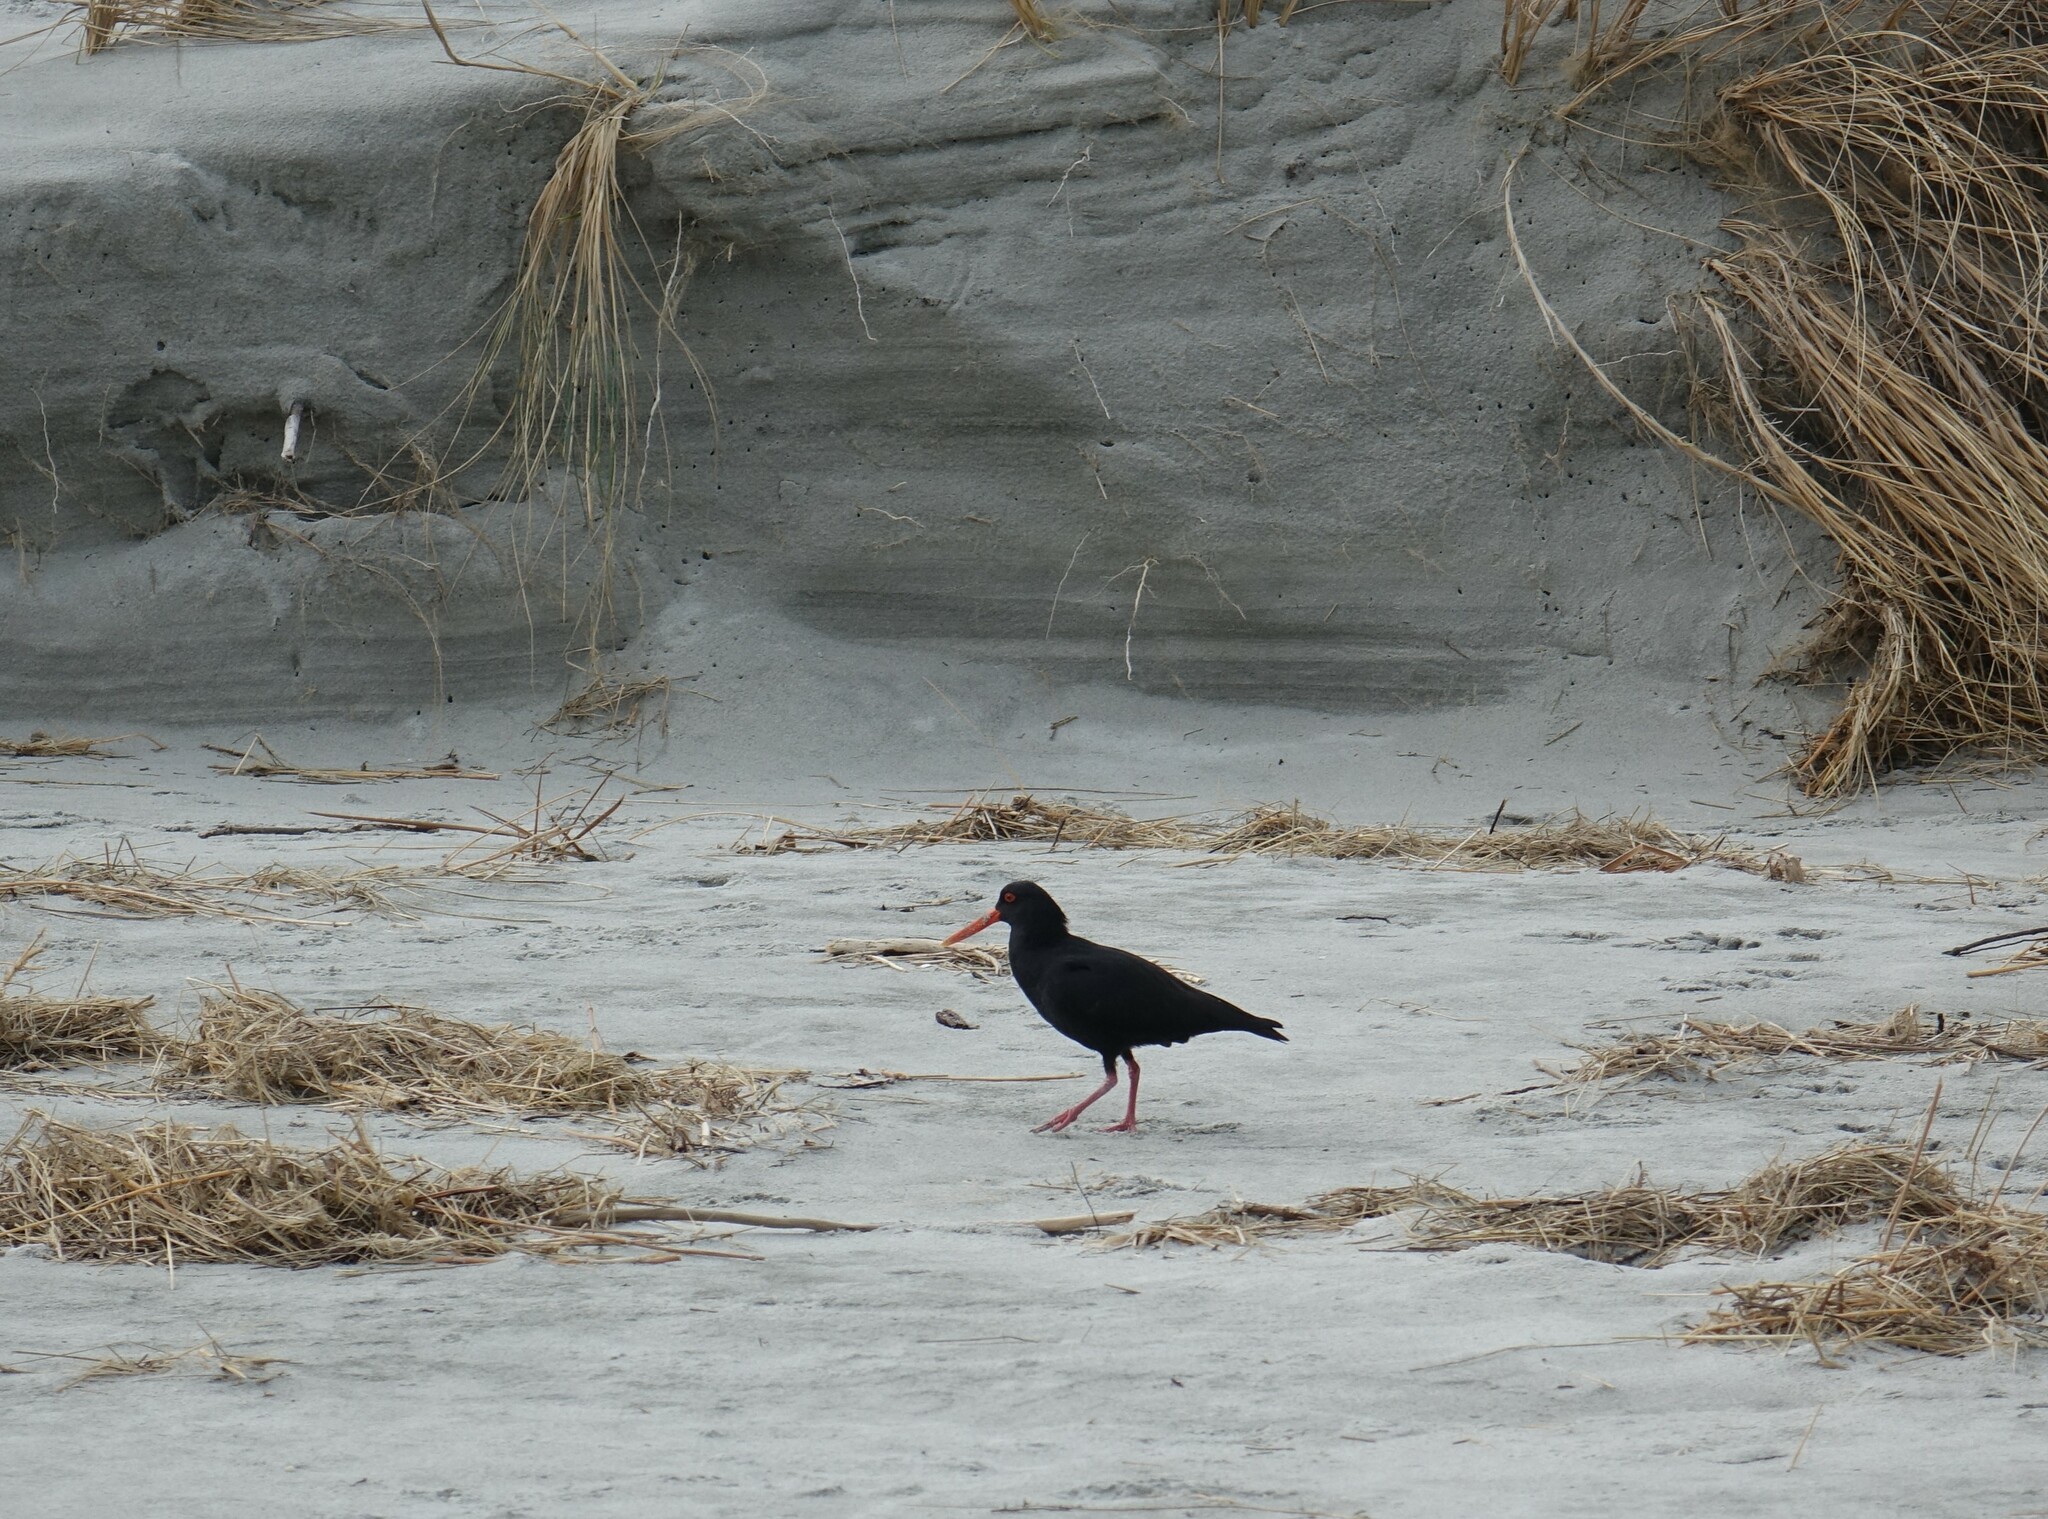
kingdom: Animalia
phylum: Chordata
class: Aves
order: Charadriiformes
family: Haematopodidae
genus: Haematopus
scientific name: Haematopus unicolor
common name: Variable oystercatcher
